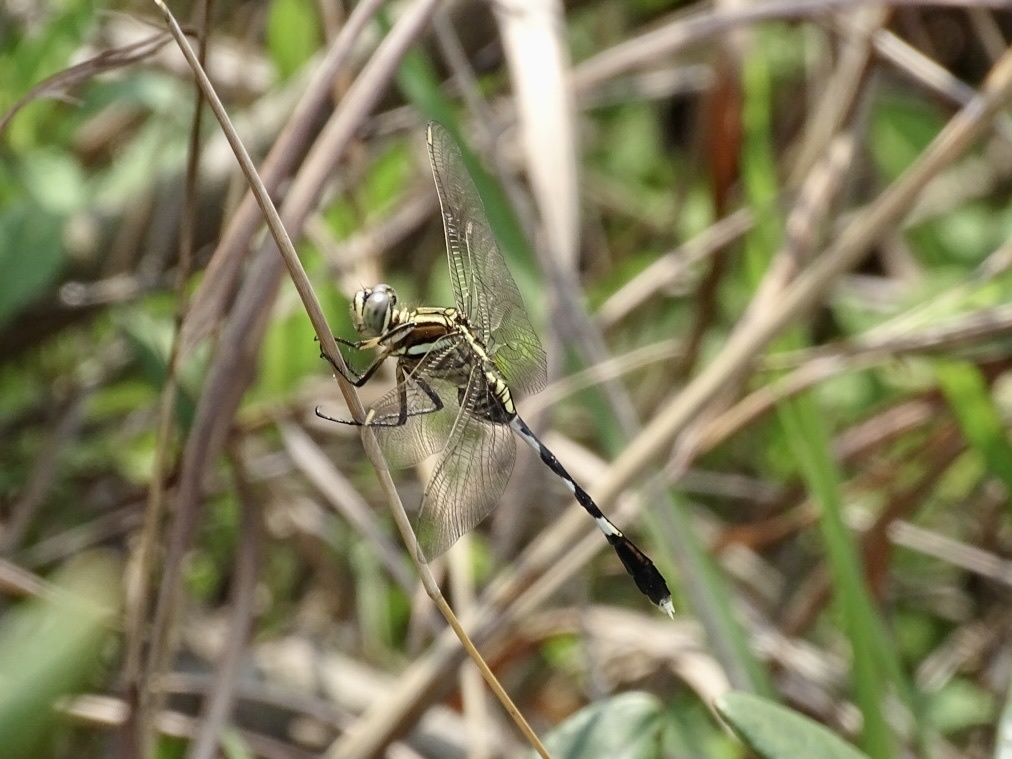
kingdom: Animalia
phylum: Arthropoda
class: Insecta
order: Odonata
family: Libellulidae
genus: Orthetrum
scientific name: Orthetrum sabina
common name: Slender skimmer
